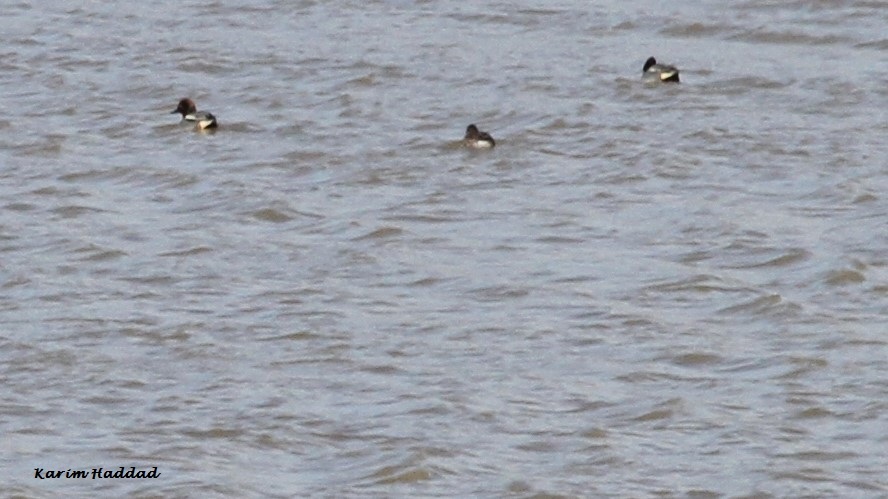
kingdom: Animalia
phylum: Chordata
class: Aves
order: Anseriformes
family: Anatidae
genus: Anas
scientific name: Anas crecca
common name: Eurasian teal
